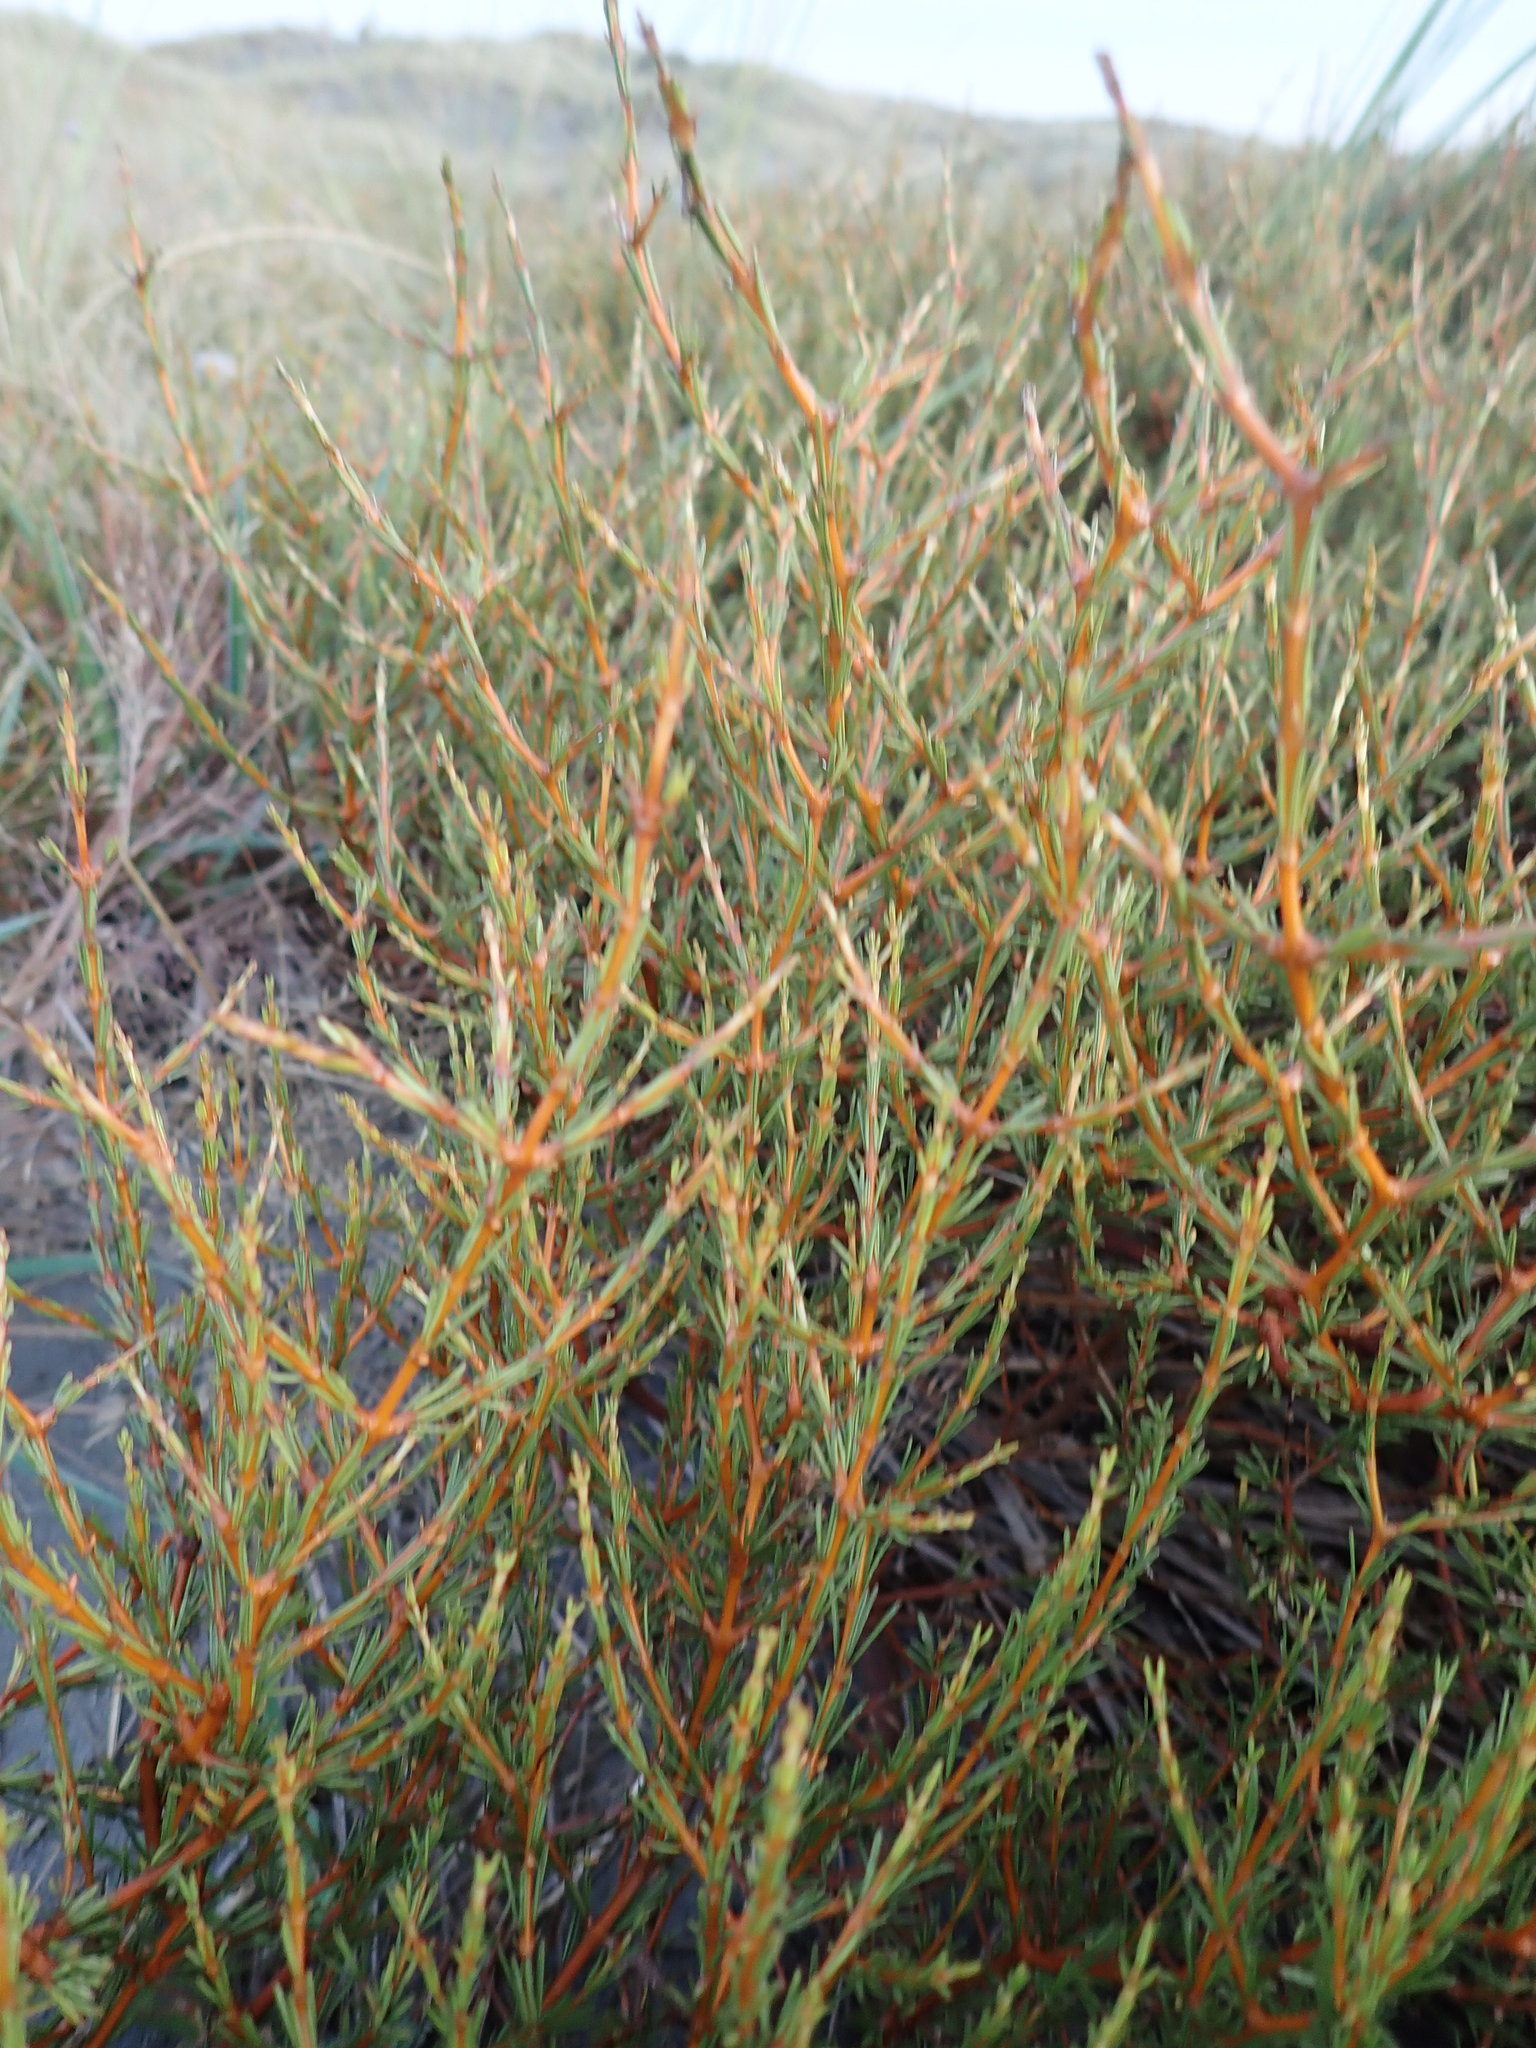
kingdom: Plantae
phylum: Tracheophyta
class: Magnoliopsida
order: Gentianales
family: Rubiaceae
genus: Coprosma
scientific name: Coprosma acerosa
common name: Sand coprosma
